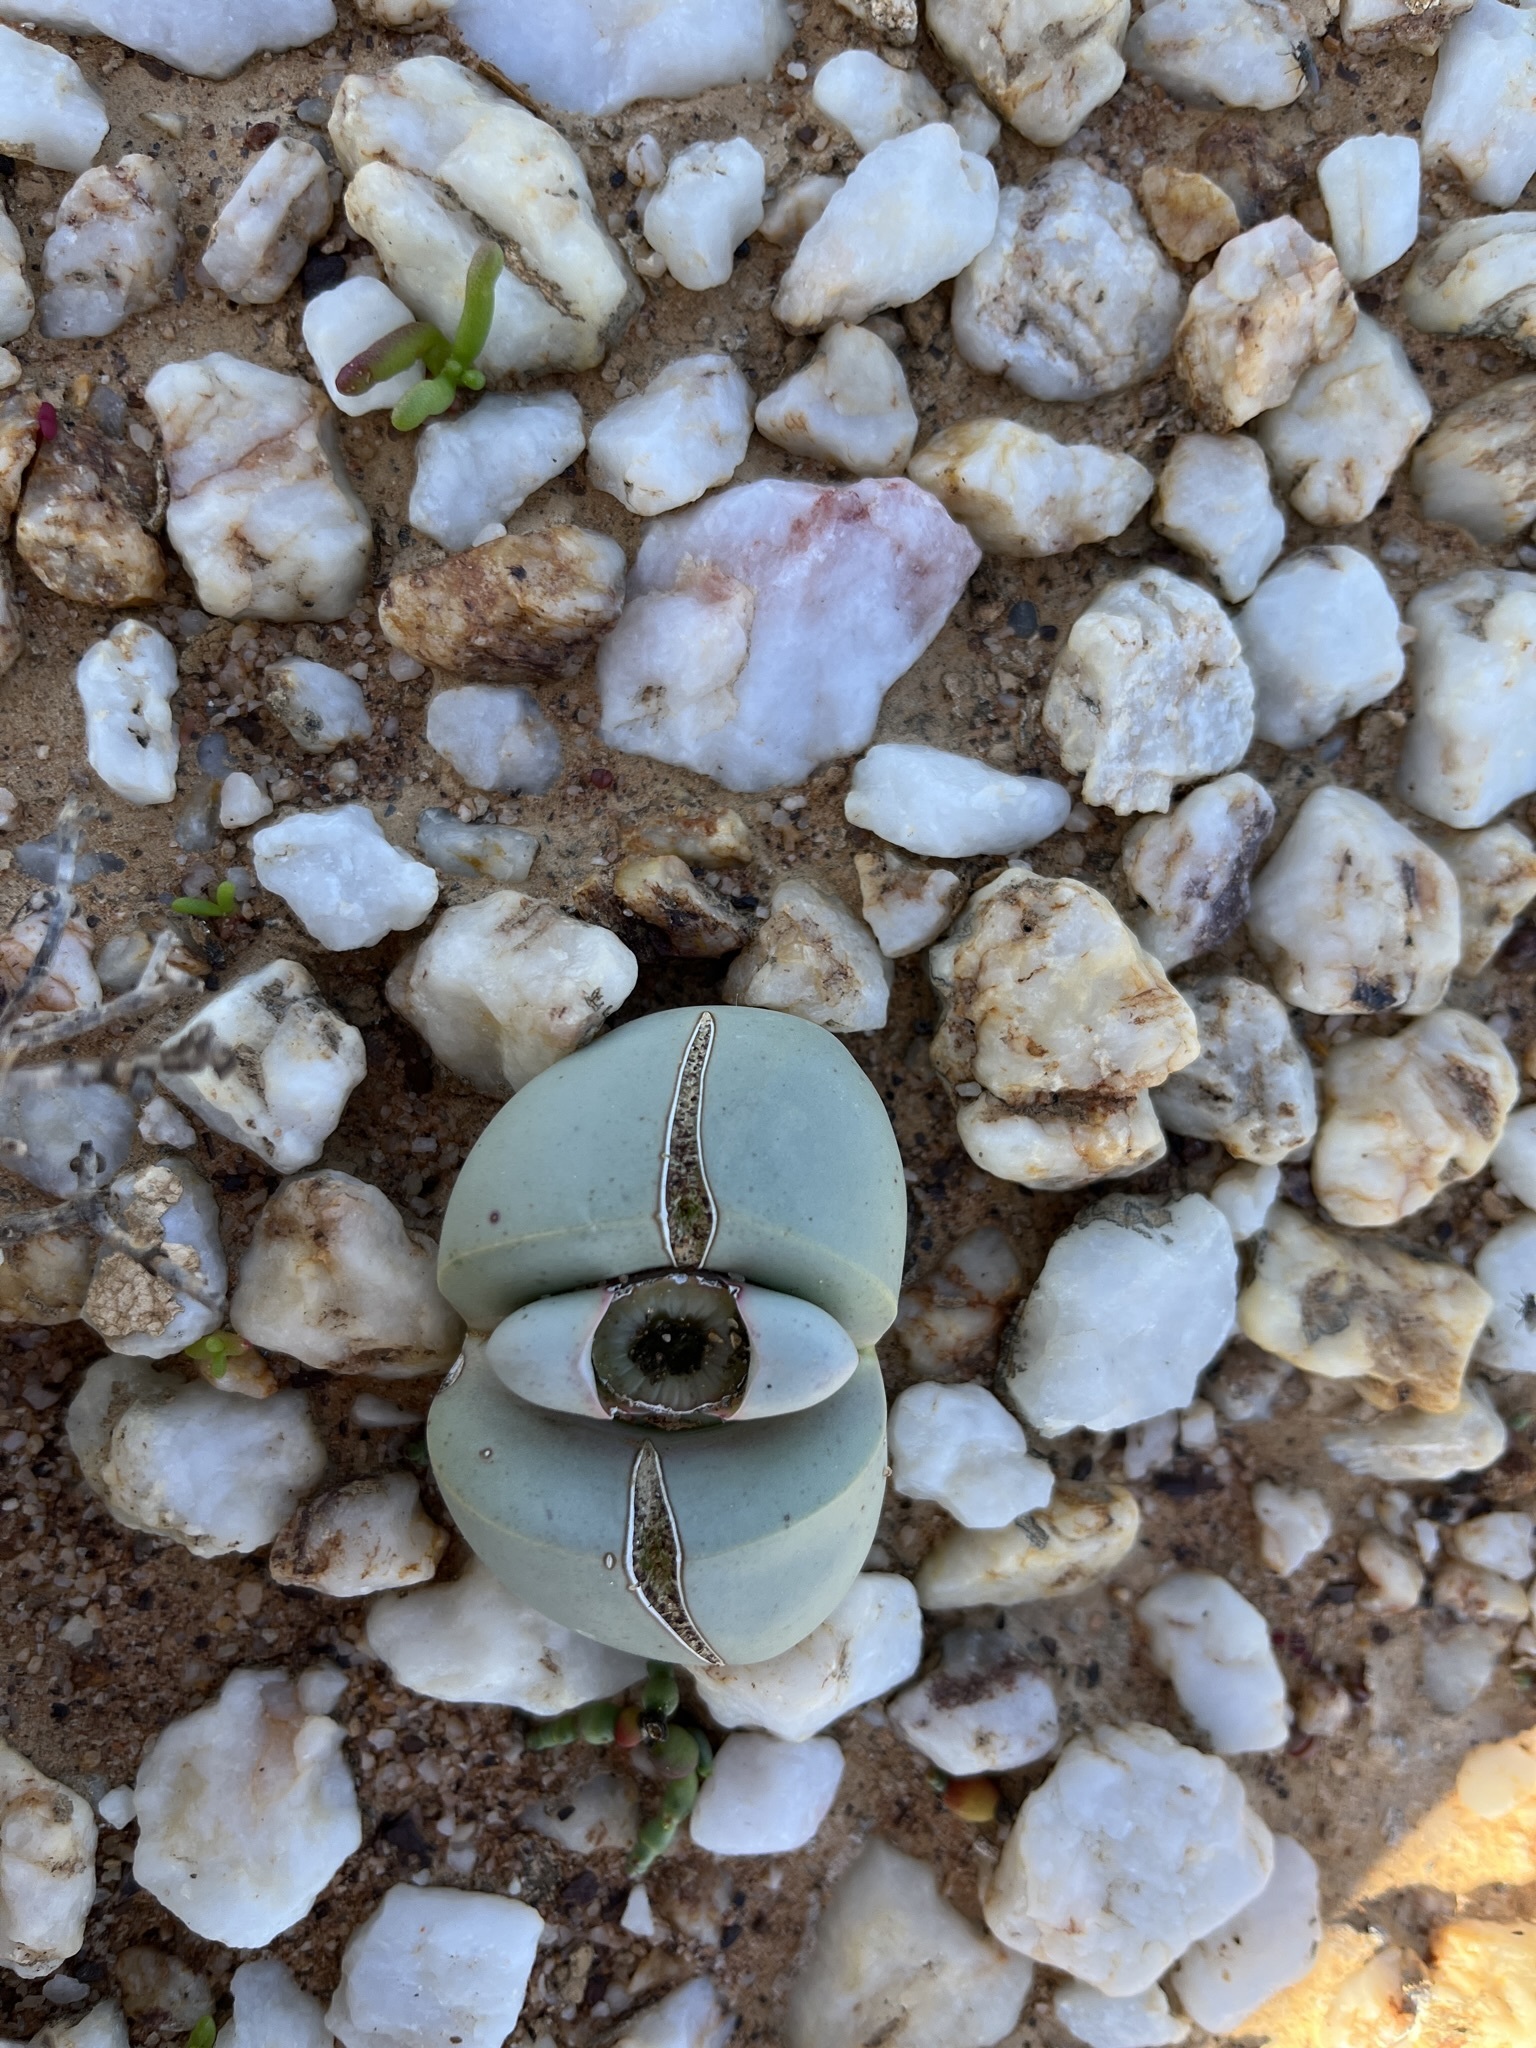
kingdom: Plantae
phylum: Tracheophyta
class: Magnoliopsida
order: Caryophyllales
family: Aizoaceae
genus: Argyroderma
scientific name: Argyroderma delaetii
